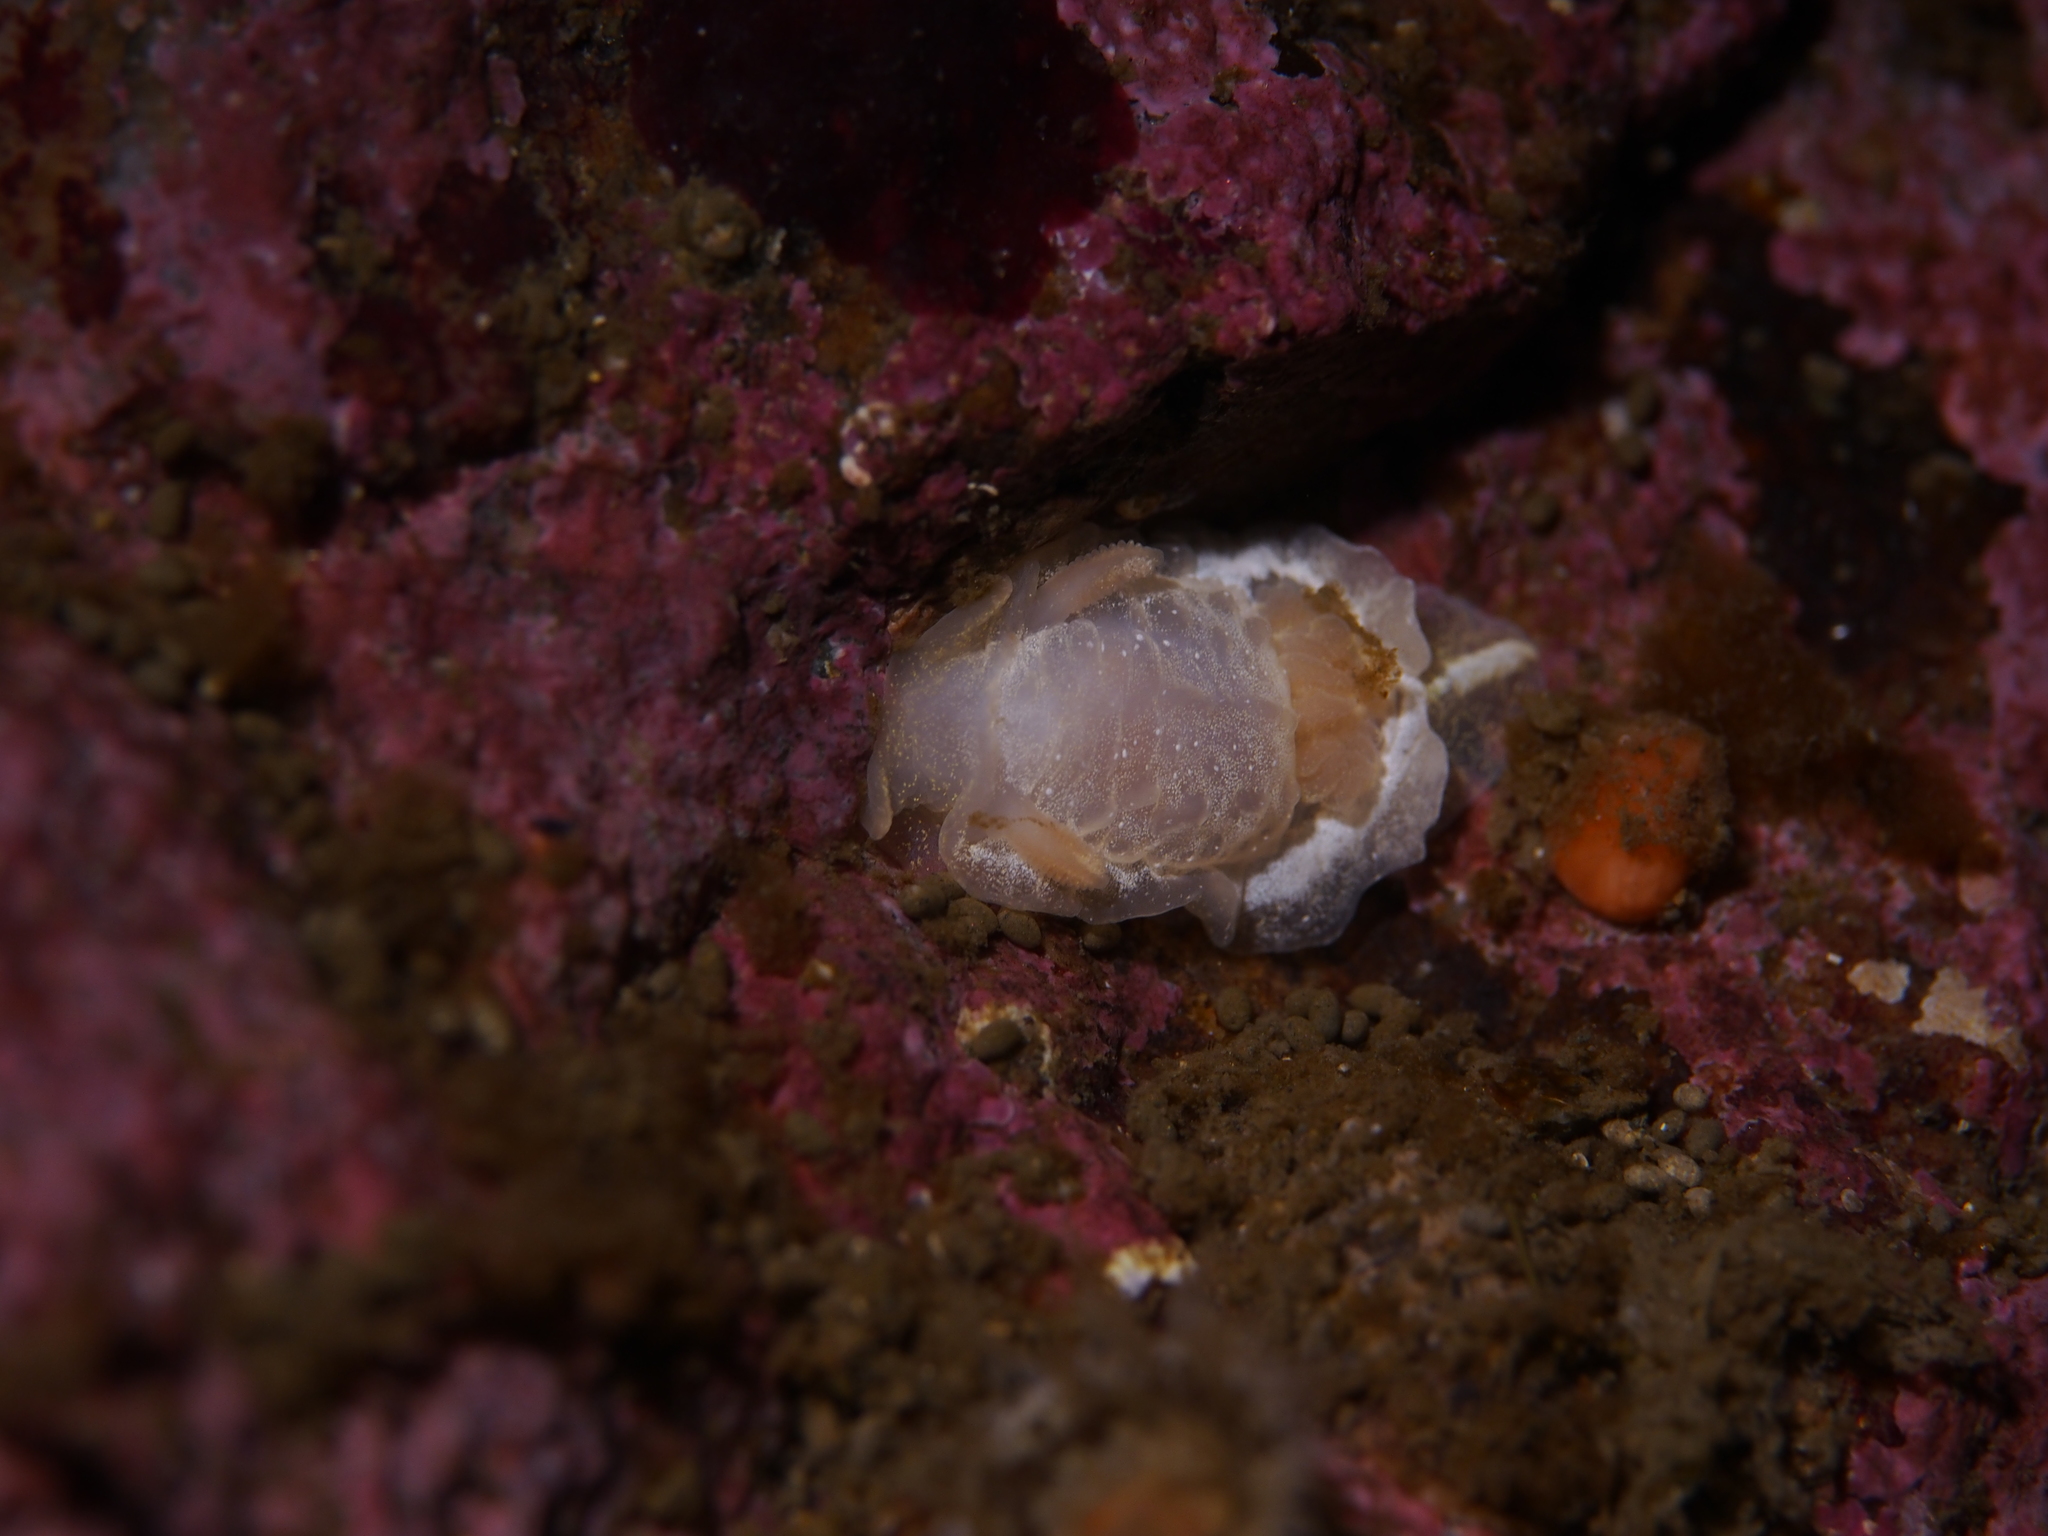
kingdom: Animalia
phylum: Mollusca
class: Gastropoda
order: Nudibranchia
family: Goniodorididae
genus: Okenia
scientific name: Okenia
